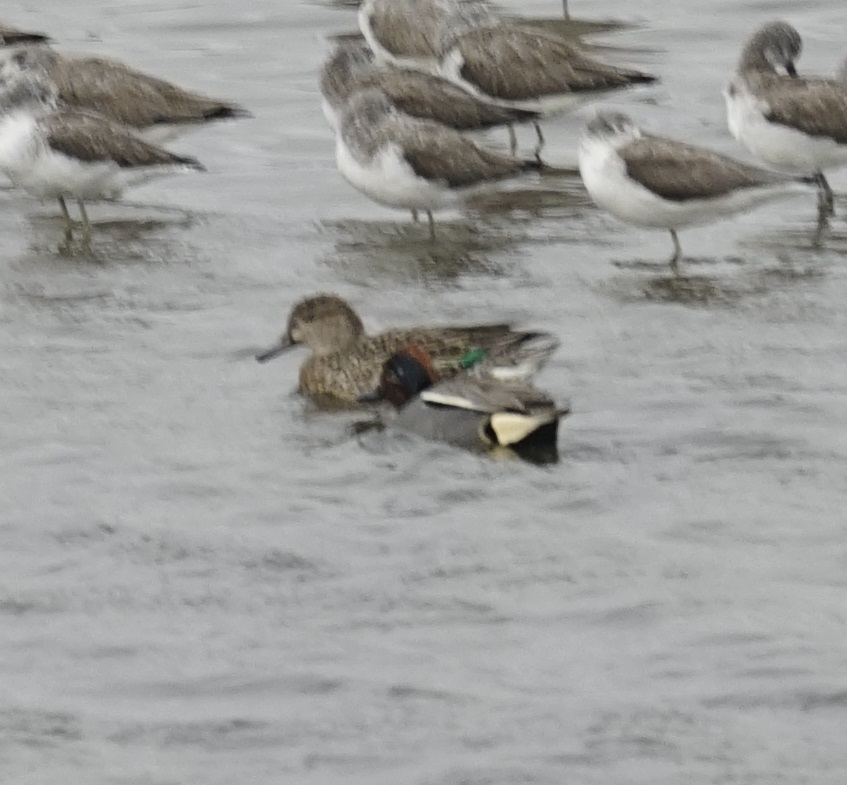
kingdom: Animalia
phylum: Chordata
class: Aves
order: Anseriformes
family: Anatidae
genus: Anas
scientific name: Anas crecca
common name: Eurasian teal
